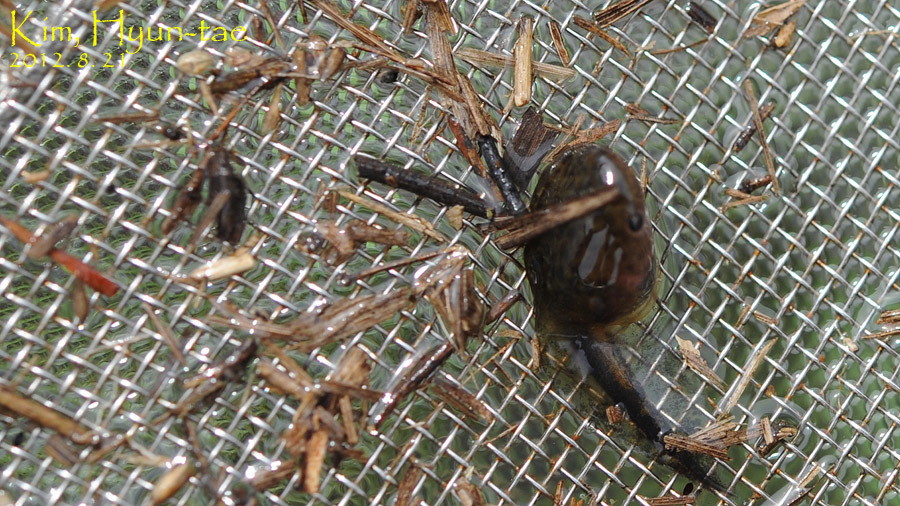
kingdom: Animalia
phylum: Chordata
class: Amphibia
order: Anura
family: Microhylidae
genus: Kaloula
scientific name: Kaloula borealis
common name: Boreal digging frog
